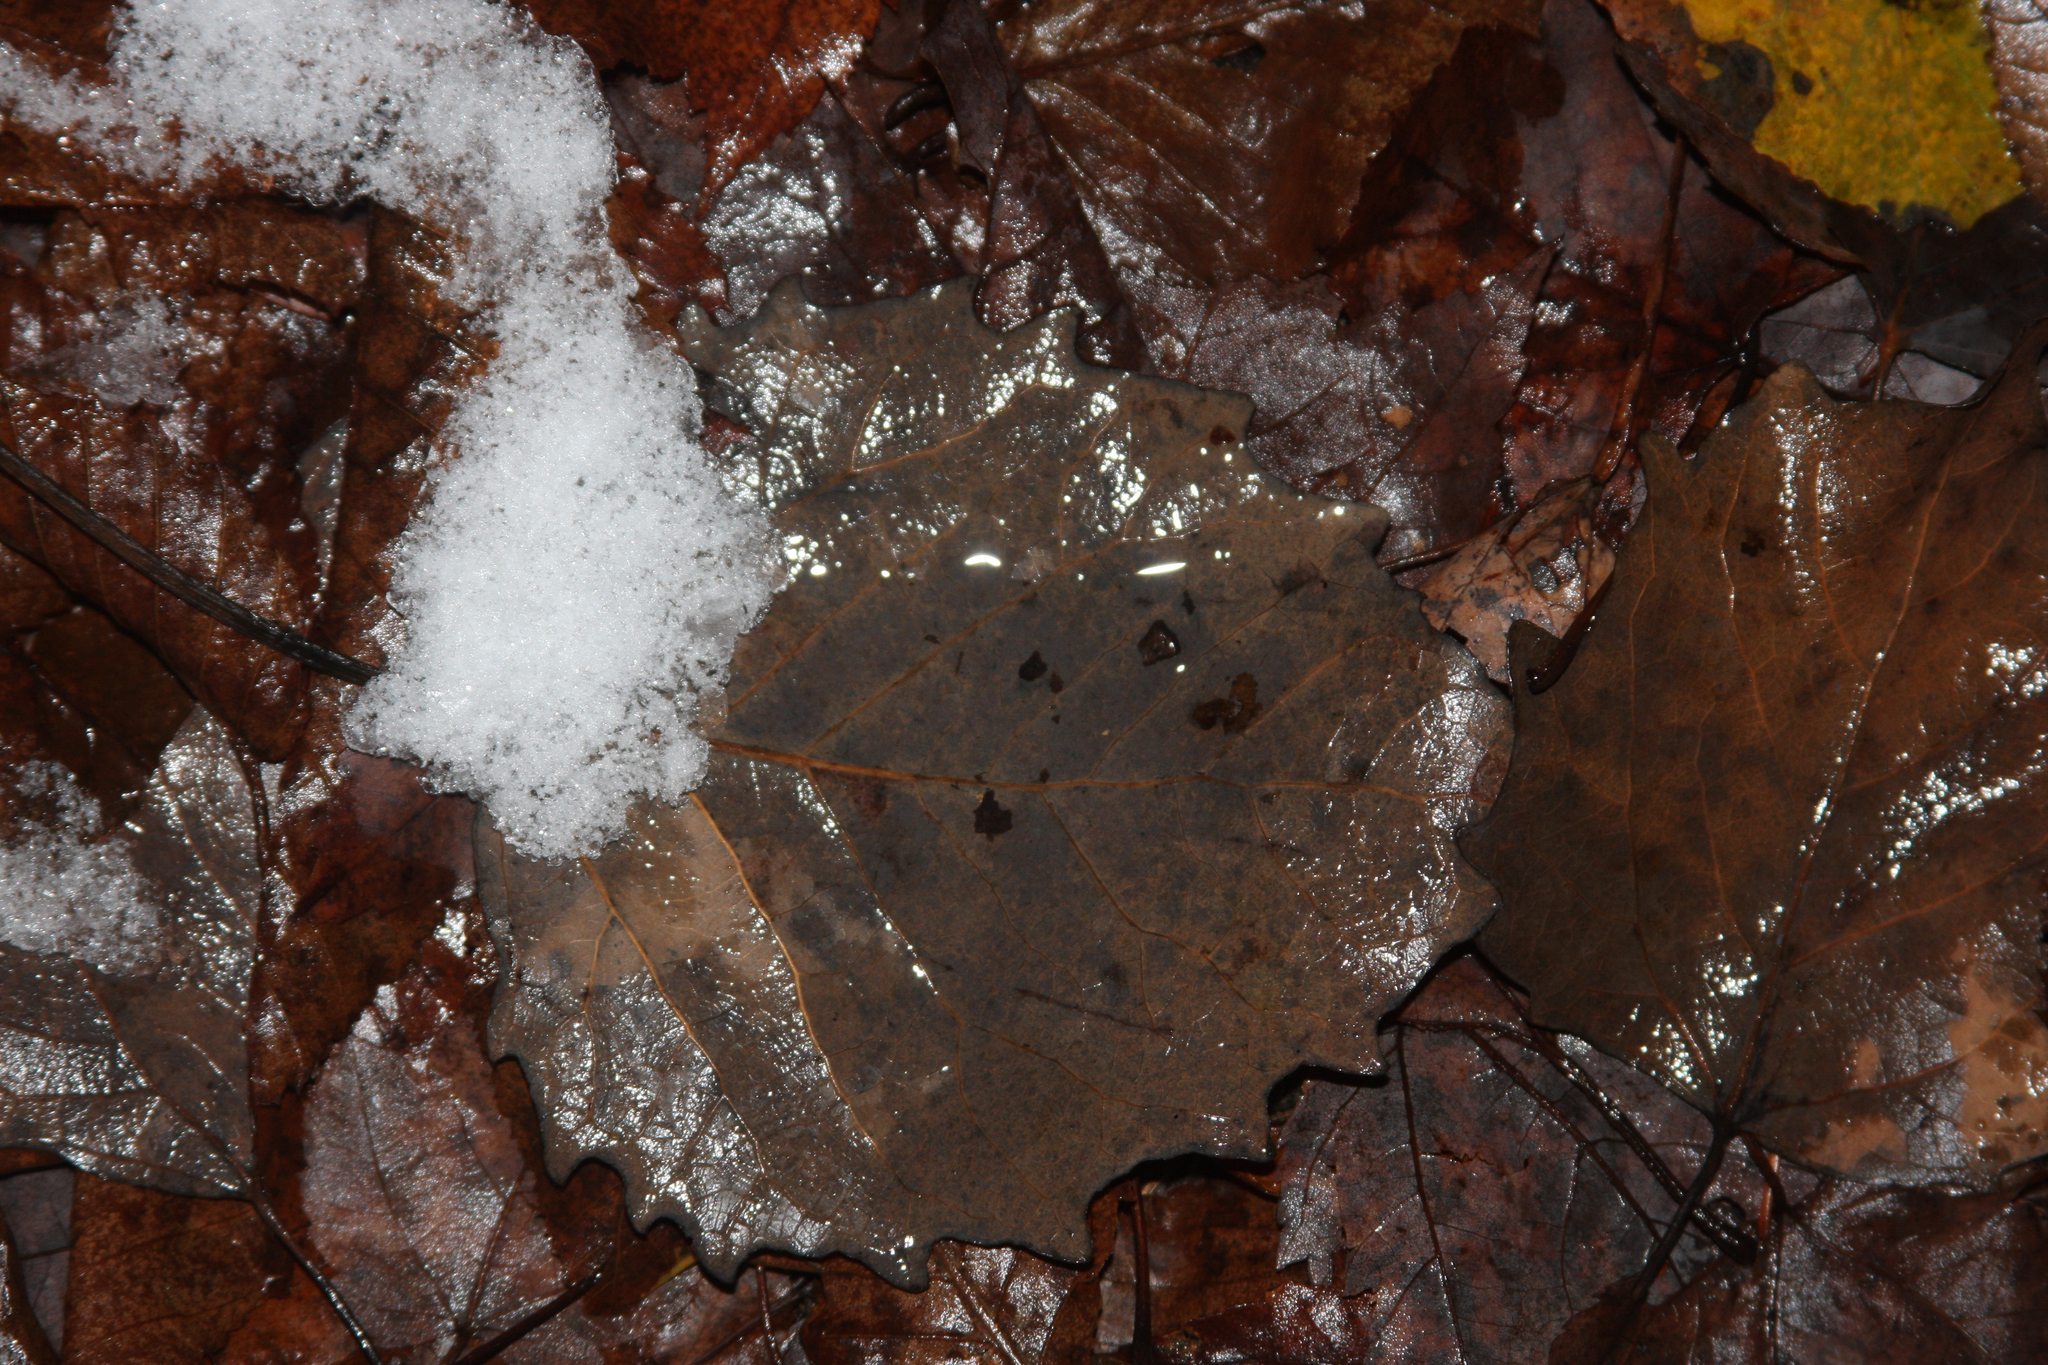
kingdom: Plantae
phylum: Tracheophyta
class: Magnoliopsida
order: Malpighiales
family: Salicaceae
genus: Populus
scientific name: Populus grandidentata
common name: Bigtooth aspen
